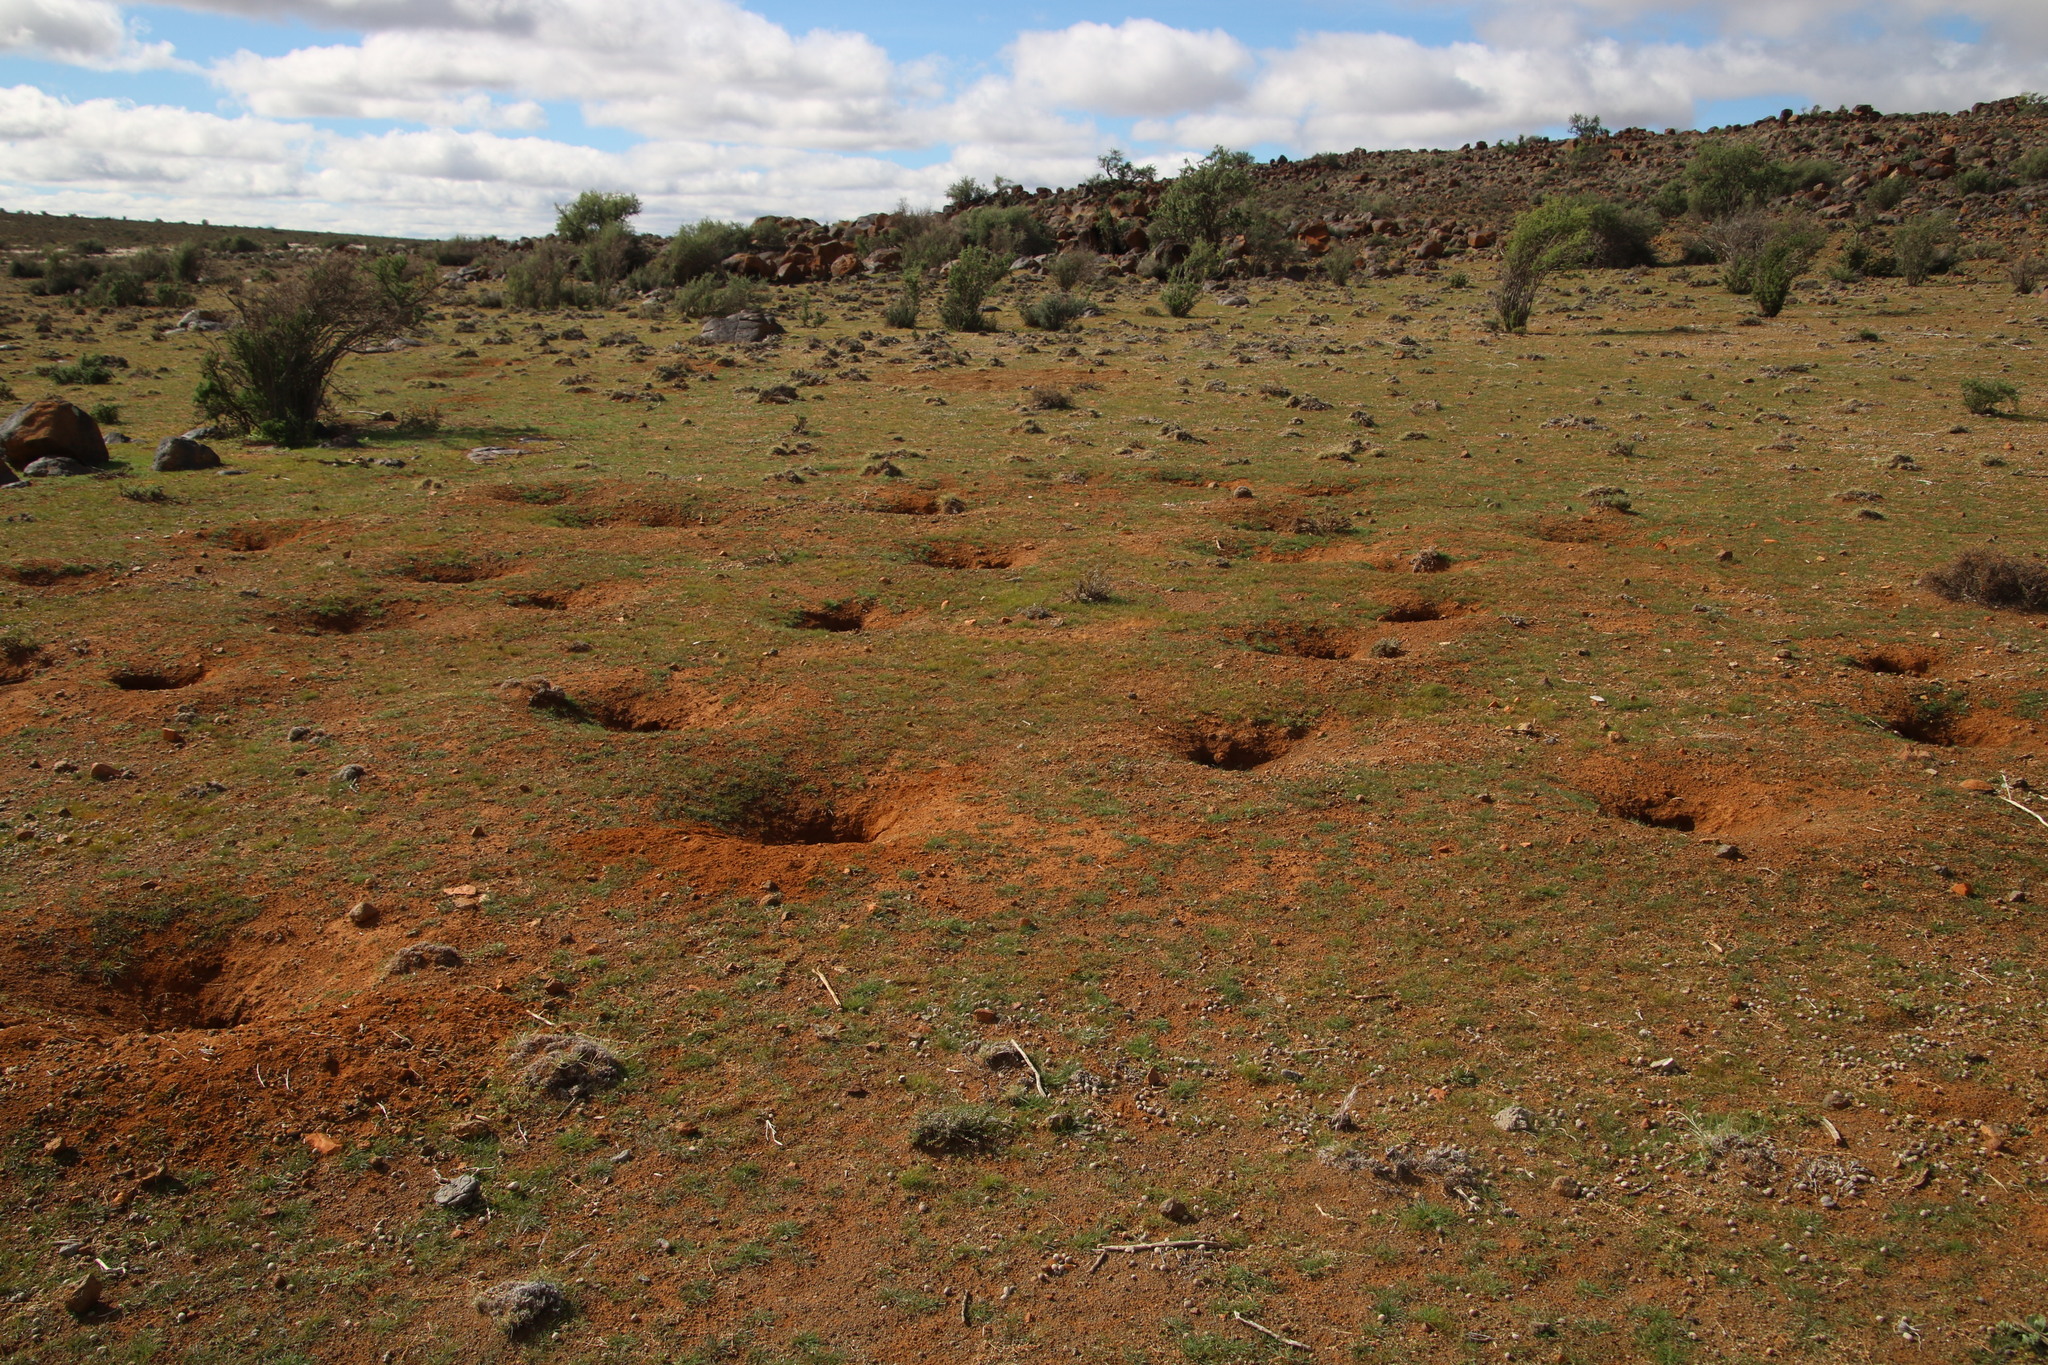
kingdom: Animalia
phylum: Chordata
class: Mammalia
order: Rodentia
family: Sciuridae
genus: Xerus
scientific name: Xerus inauris
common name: South african ground squirrel
